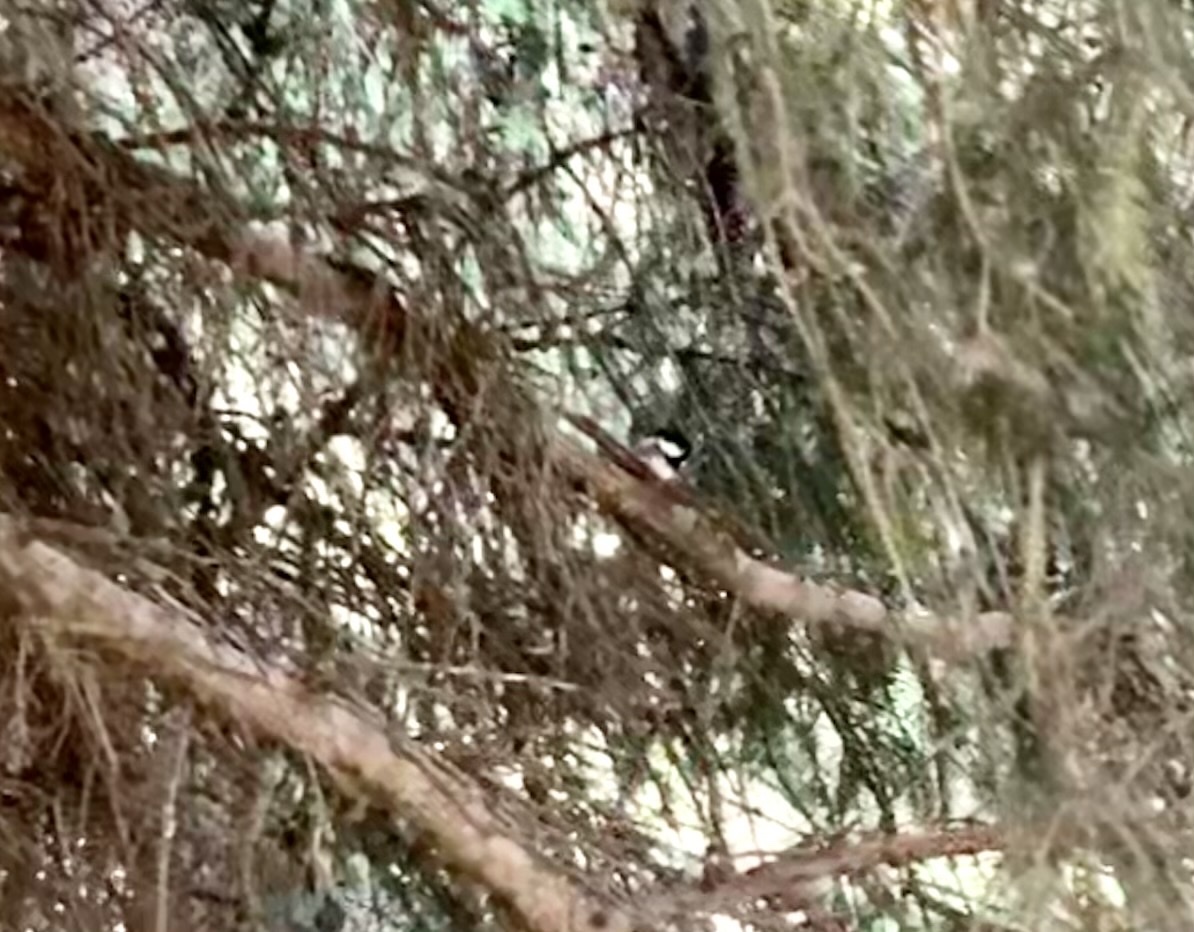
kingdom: Animalia
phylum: Chordata
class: Aves
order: Passeriformes
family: Paridae
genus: Periparus
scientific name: Periparus ater
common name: Coal tit
